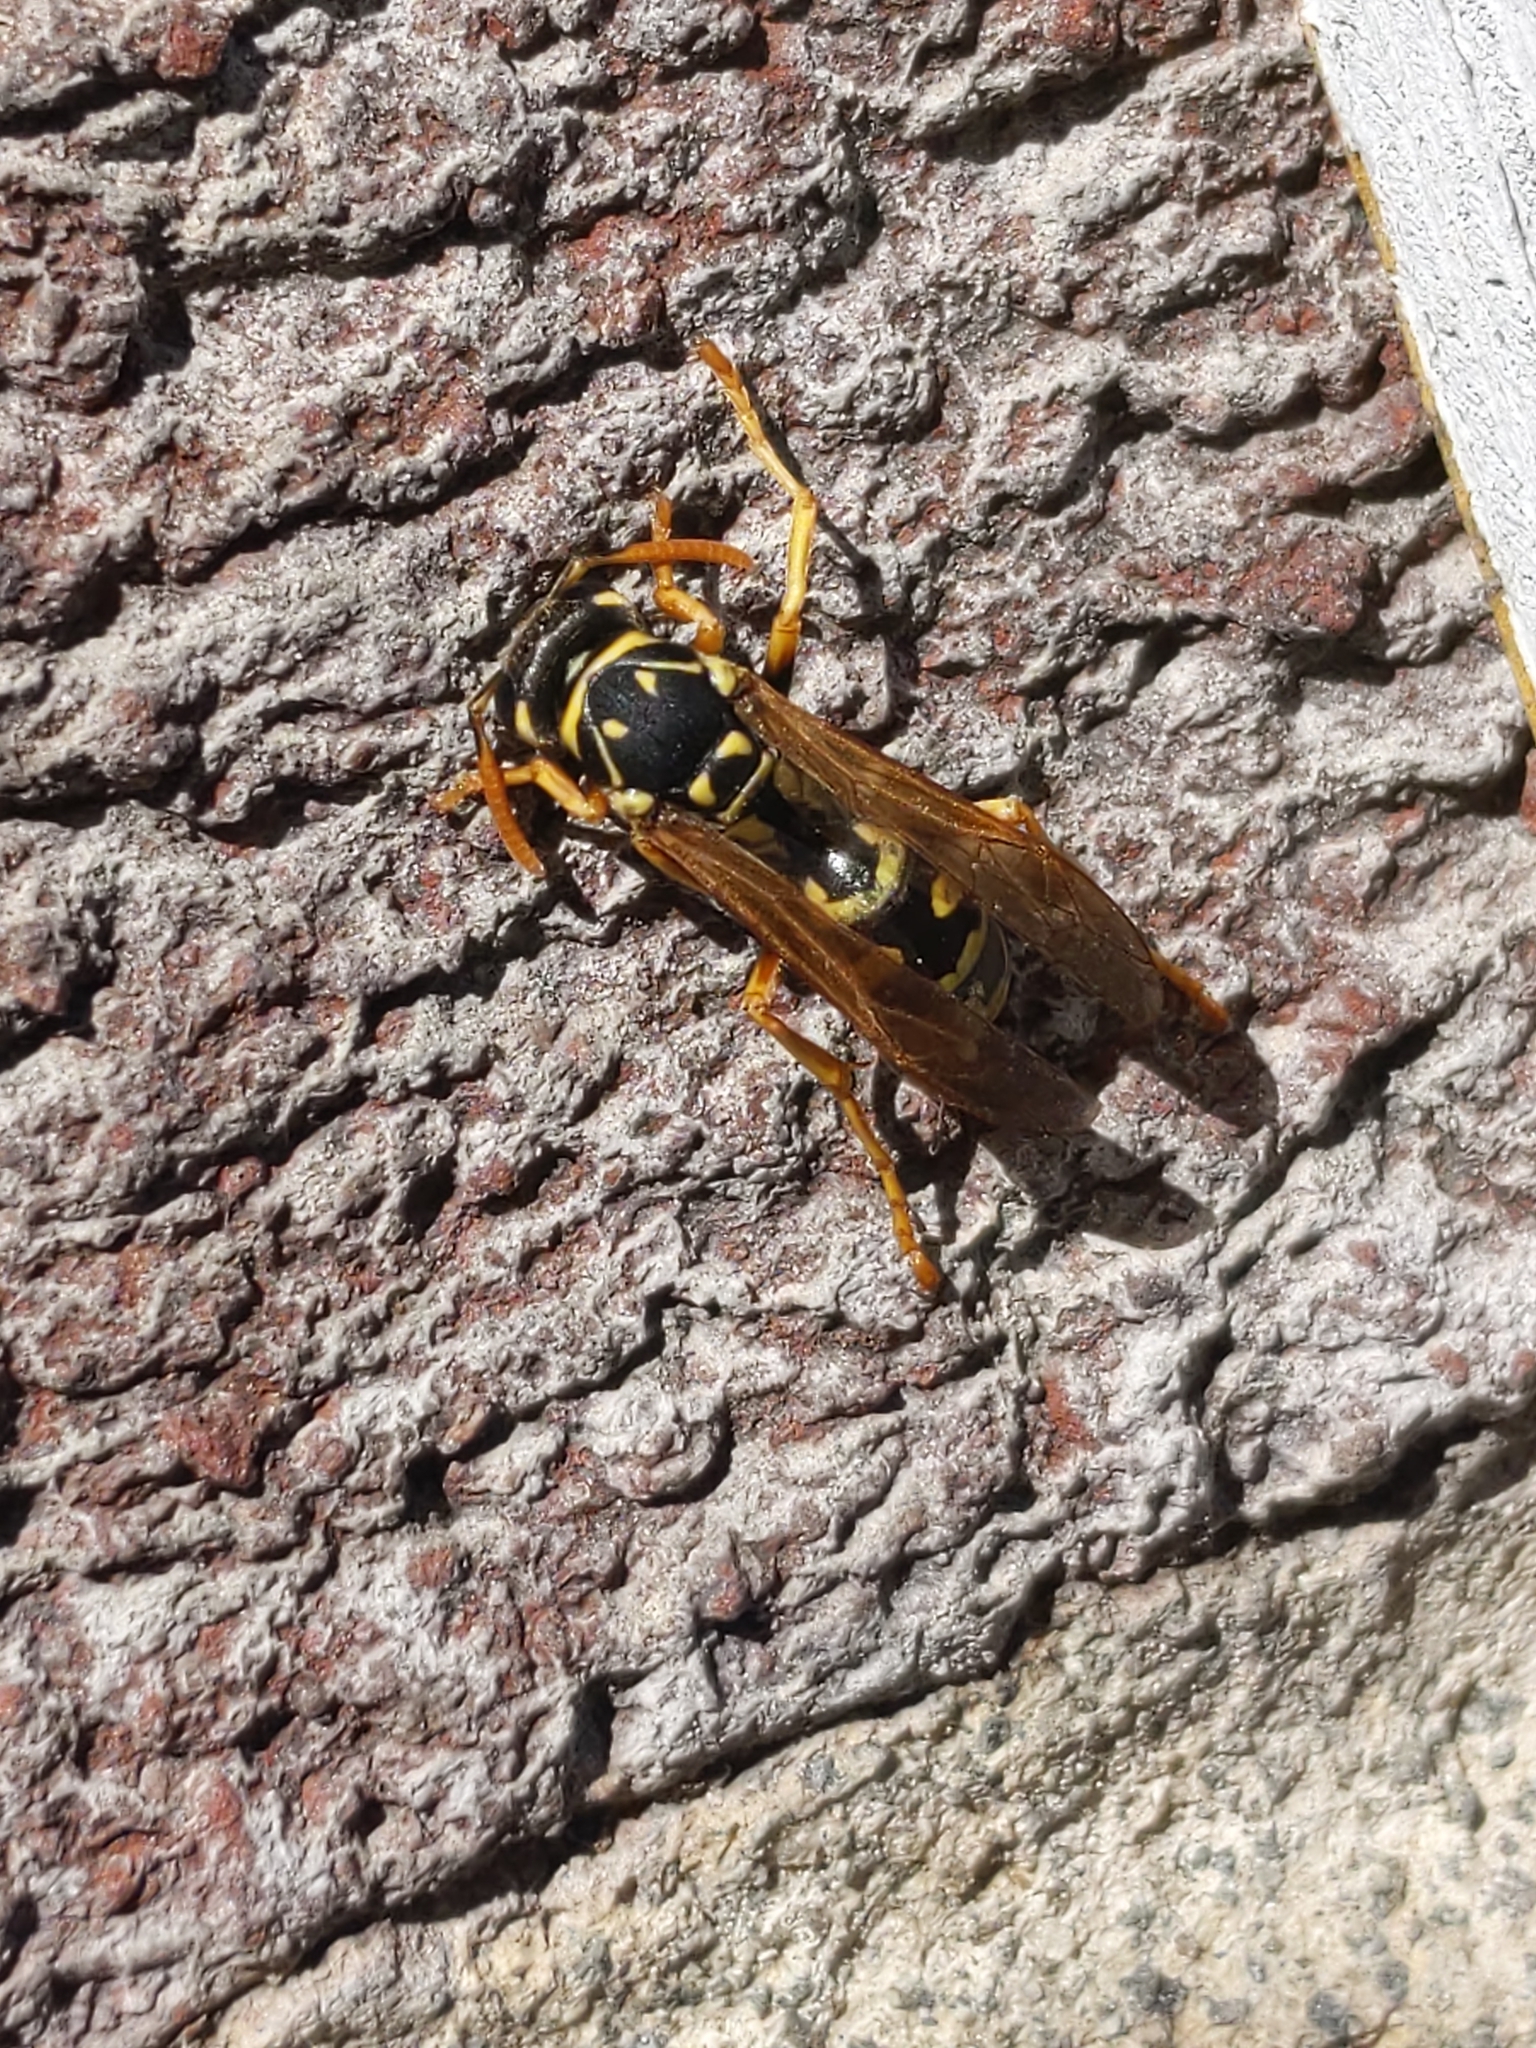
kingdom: Animalia
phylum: Arthropoda
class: Insecta
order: Hymenoptera
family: Eumenidae
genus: Polistes
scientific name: Polistes dominula
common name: Paper wasp
